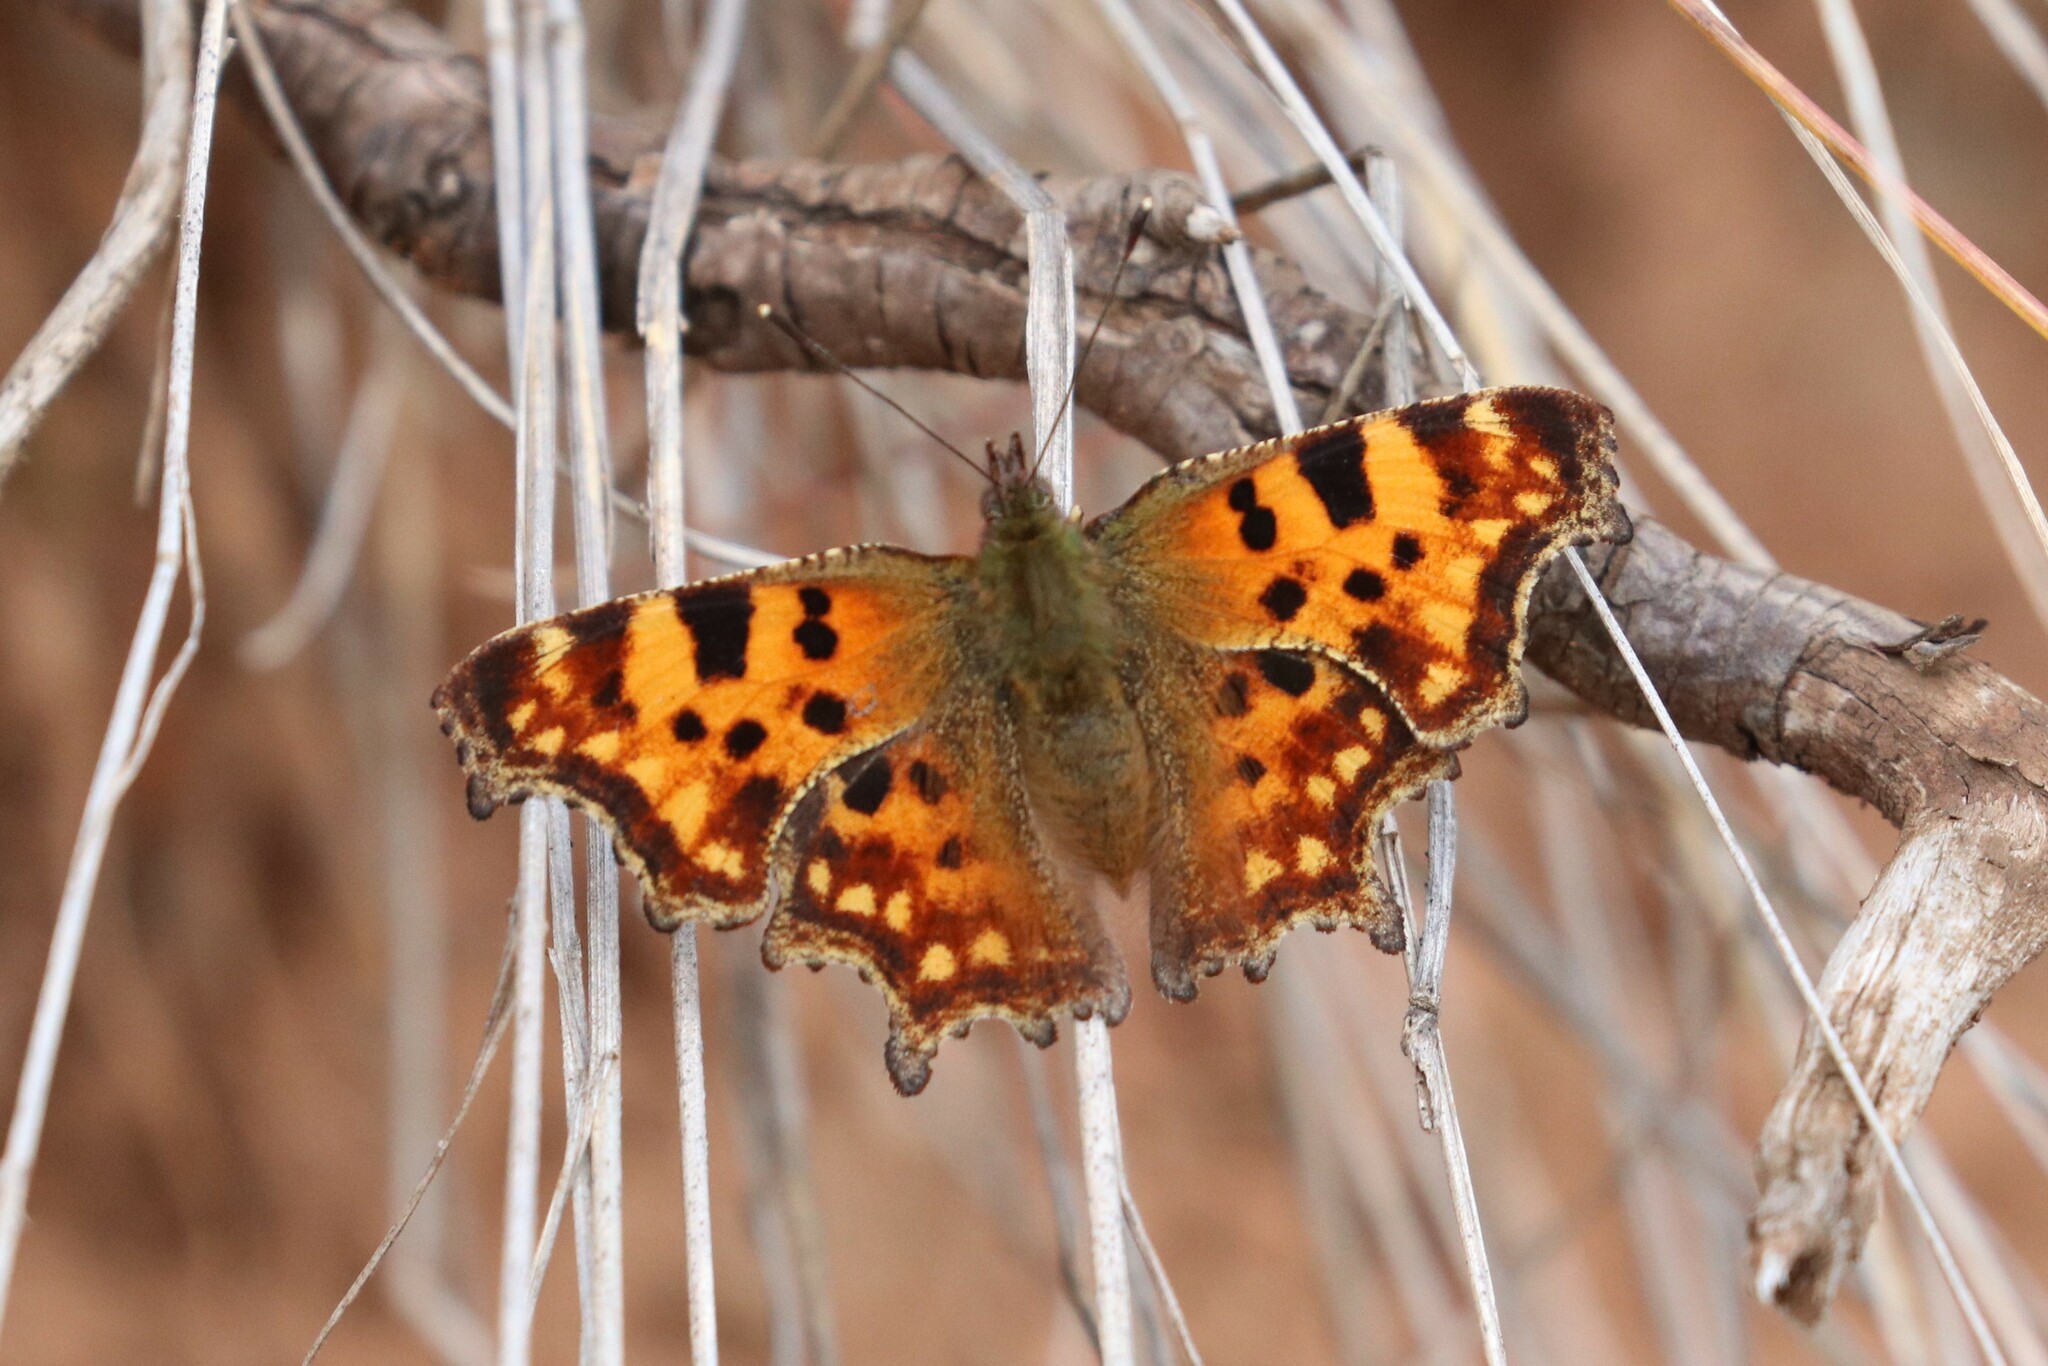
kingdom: Animalia
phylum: Arthropoda
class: Insecta
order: Lepidoptera
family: Nymphalidae
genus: Polygonia
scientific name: Polygonia c-album
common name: Comma
